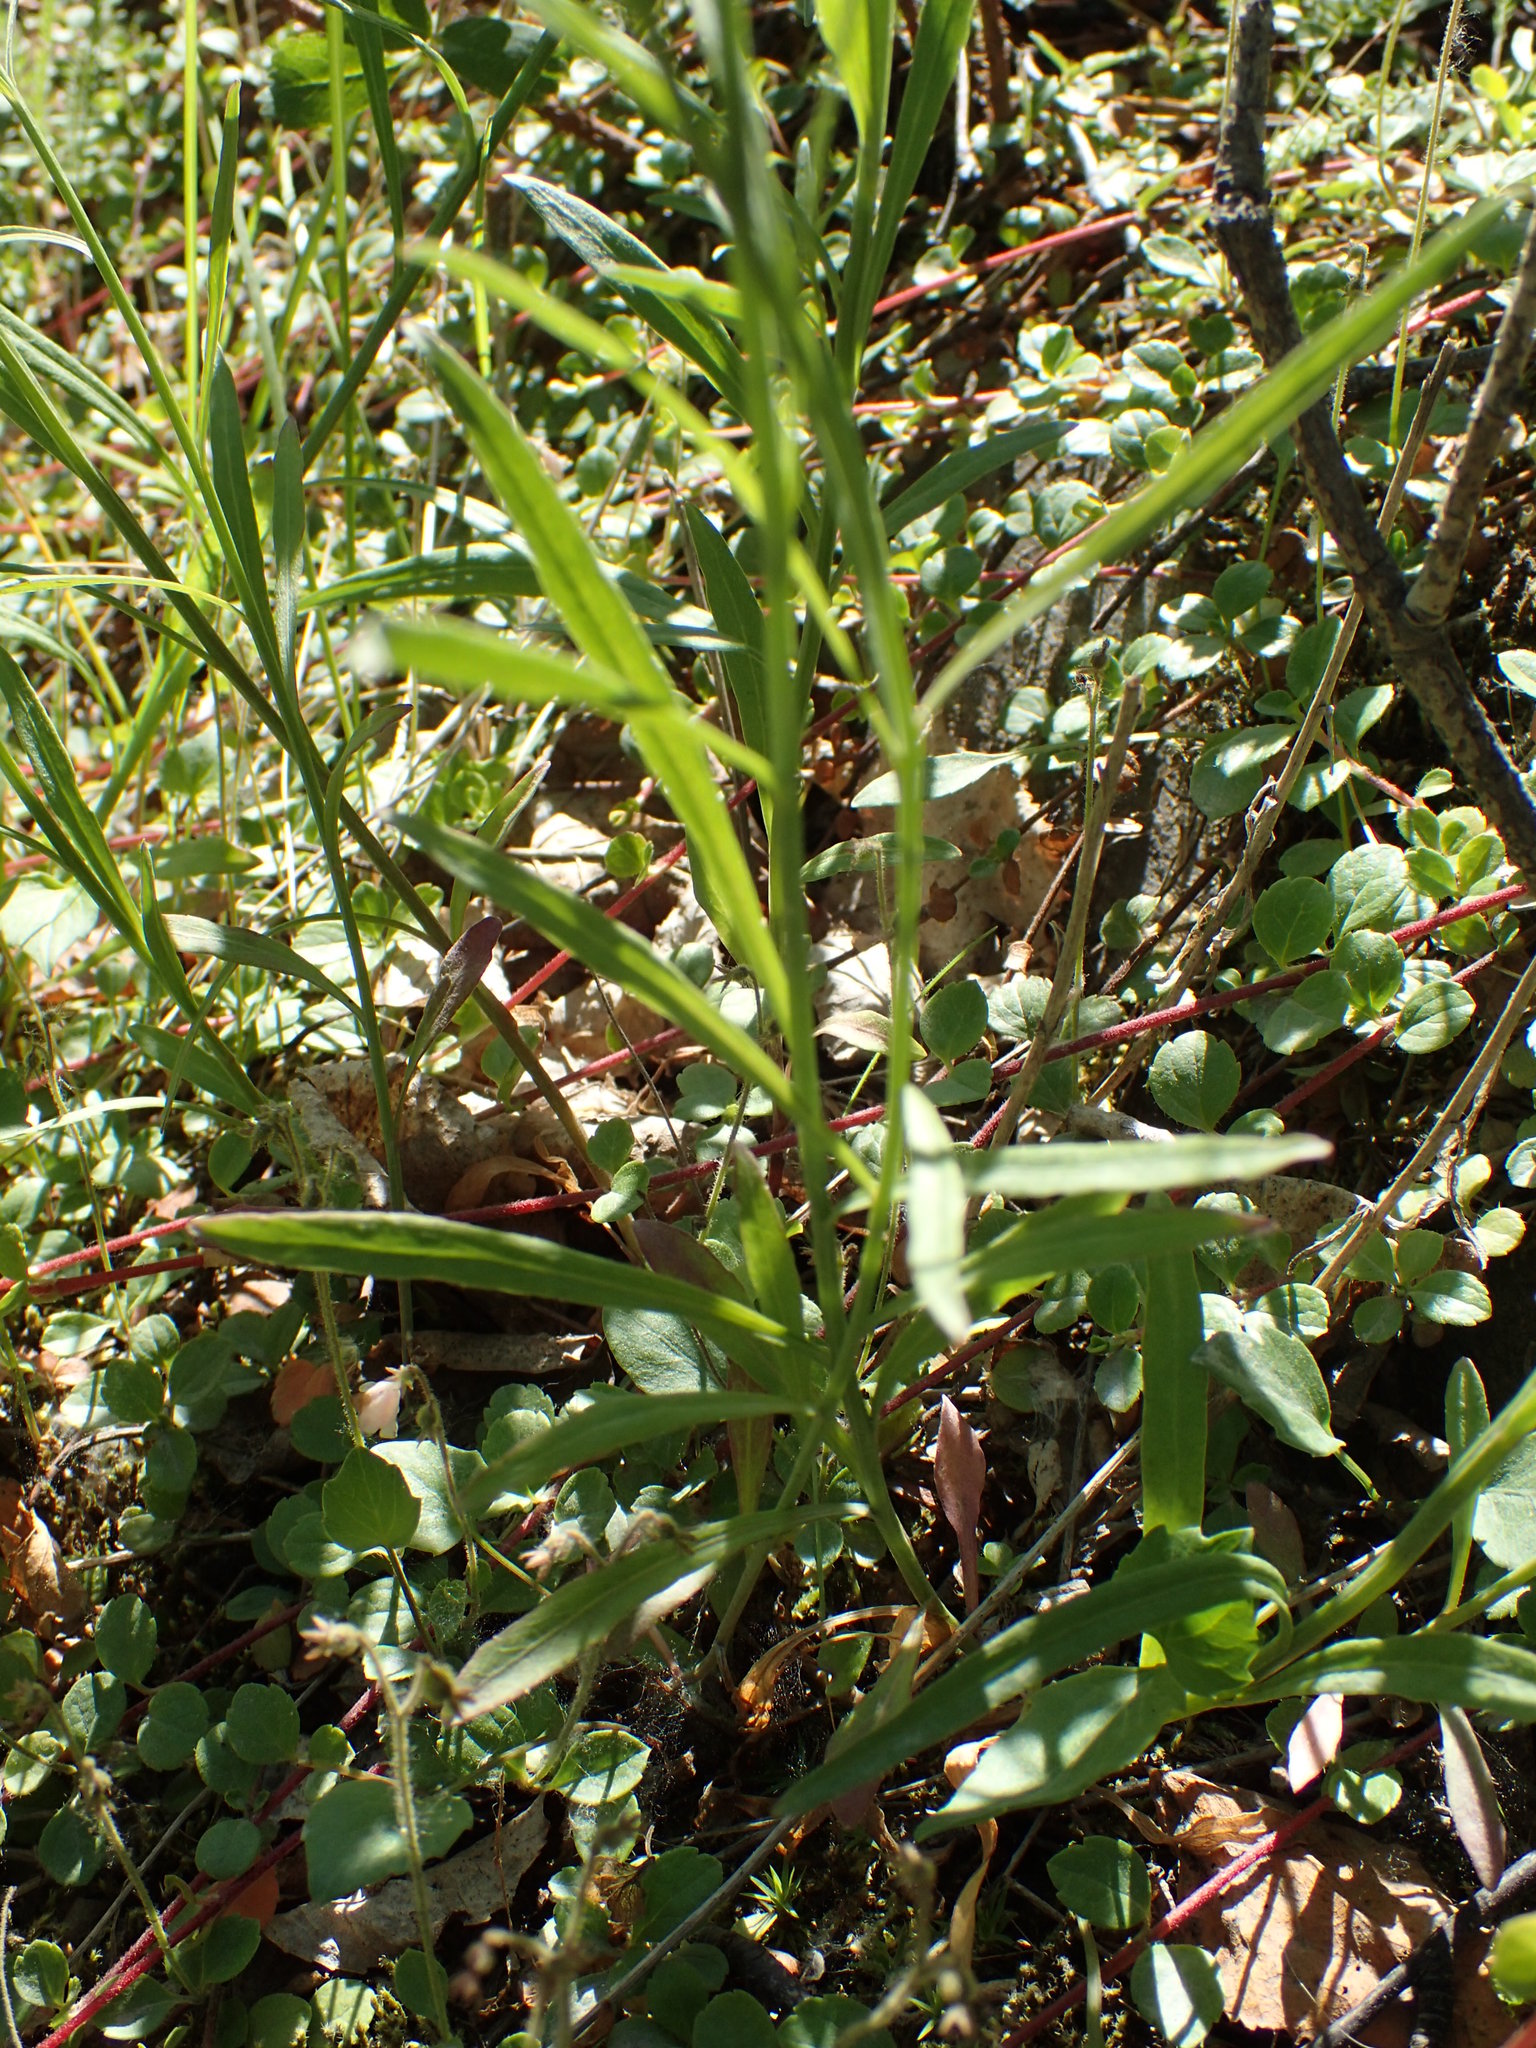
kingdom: Plantae
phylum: Tracheophyta
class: Magnoliopsida
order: Asterales
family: Campanulaceae
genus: Campanula
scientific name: Campanula alaskana
